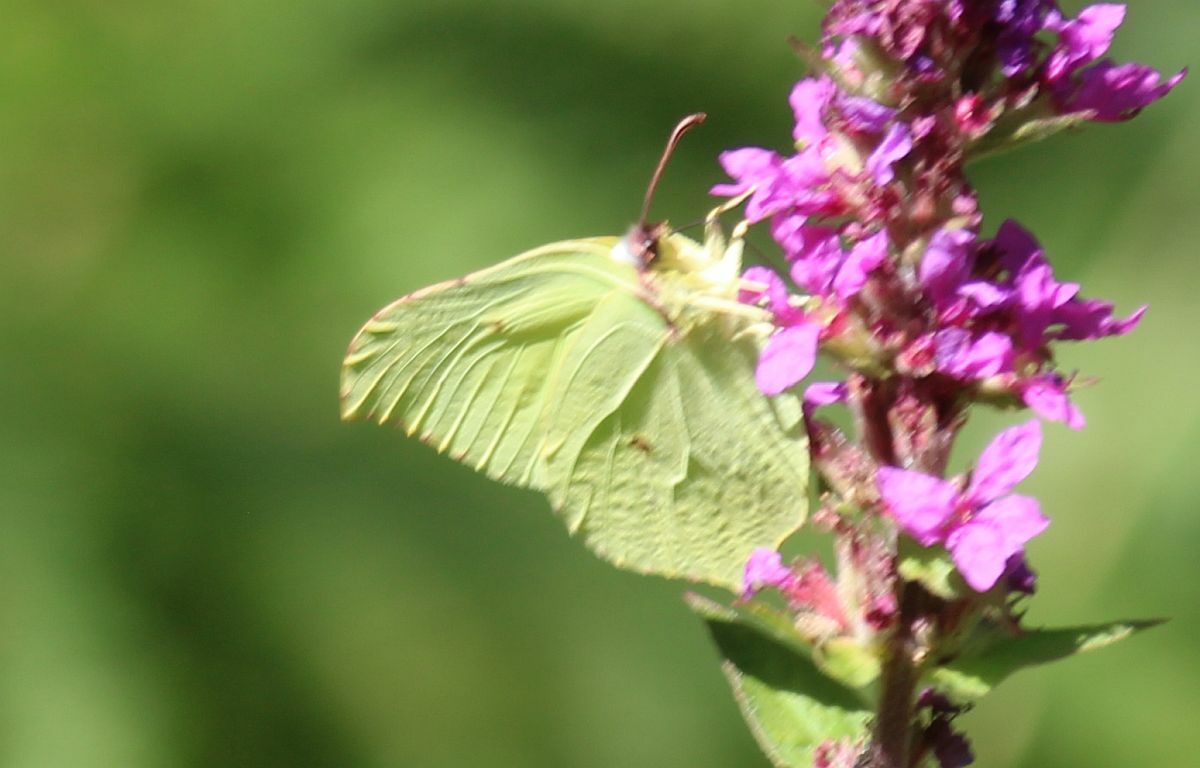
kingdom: Animalia
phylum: Arthropoda
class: Insecta
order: Lepidoptera
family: Pieridae
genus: Gonepteryx
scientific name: Gonepteryx rhamni
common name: Brimstone
